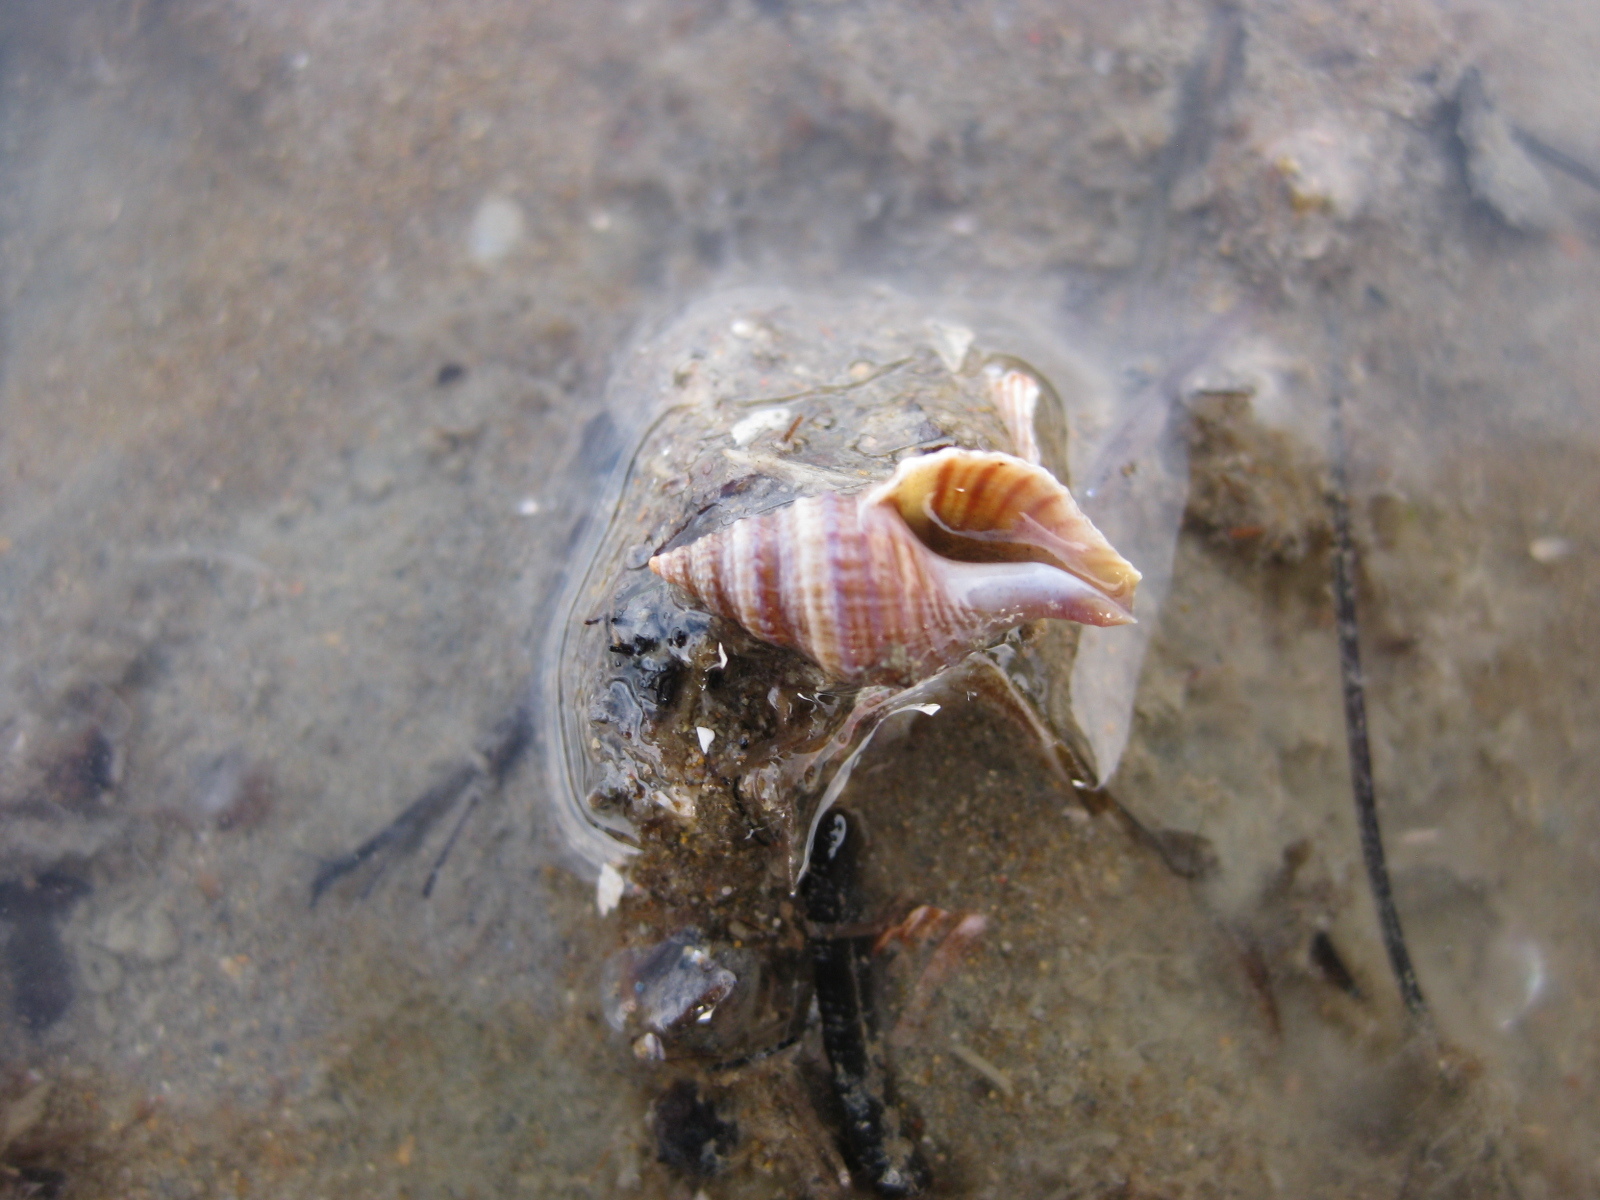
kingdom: Animalia
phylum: Mollusca
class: Gastropoda
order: Neogastropoda
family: Muricidae
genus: Xymene
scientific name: Xymene plebeius
